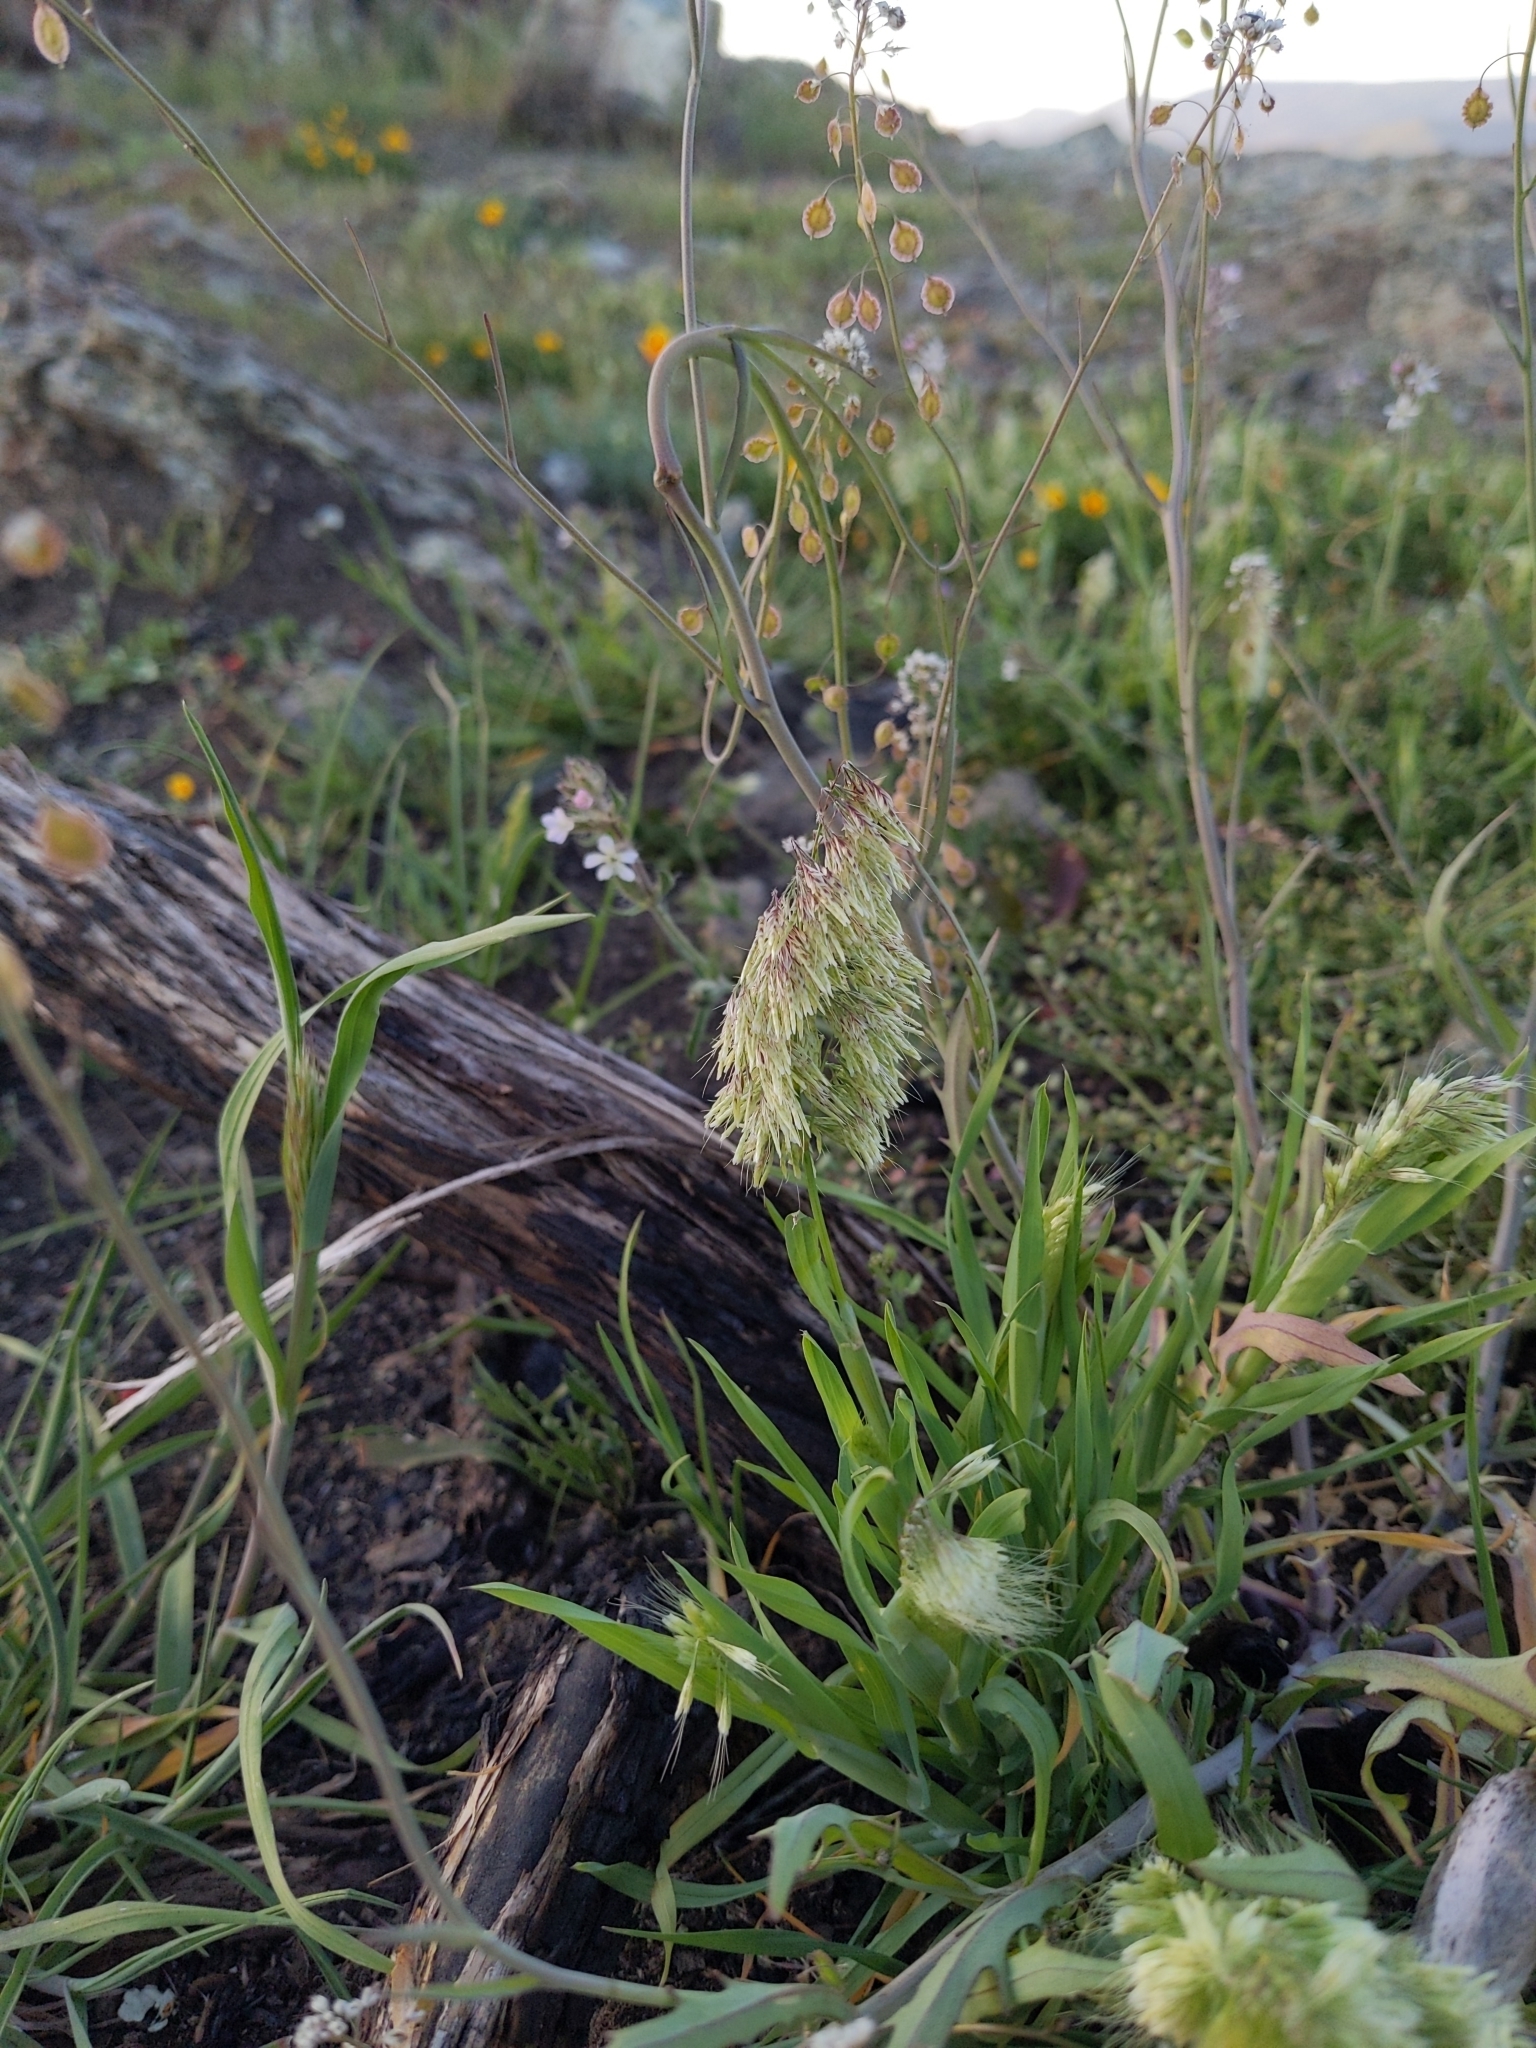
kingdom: Plantae
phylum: Tracheophyta
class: Liliopsida
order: Poales
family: Poaceae
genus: Lamarckia
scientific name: Lamarckia aurea
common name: Golden dog's-tail
